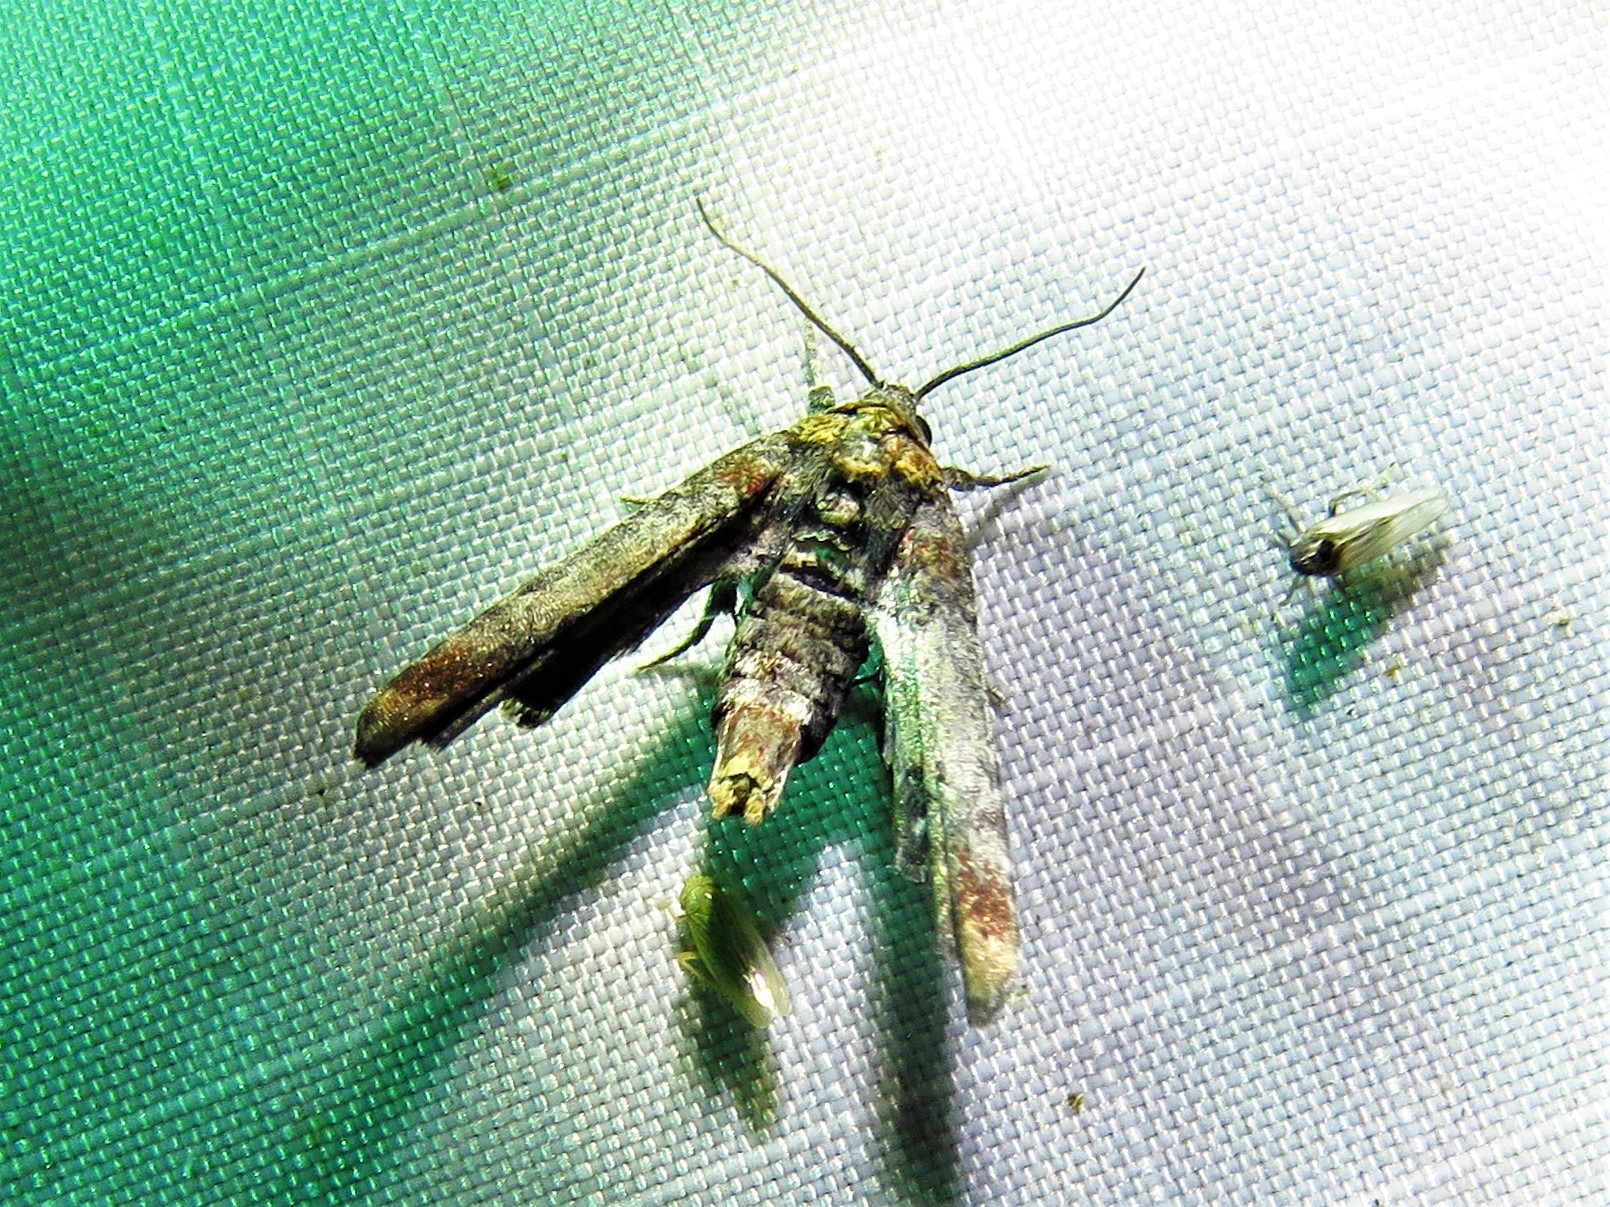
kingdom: Animalia
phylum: Arthropoda
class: Insecta
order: Lepidoptera
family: Euteliidae
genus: Marathyssa
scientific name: Marathyssa inficita
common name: Dark marathyssa moth
